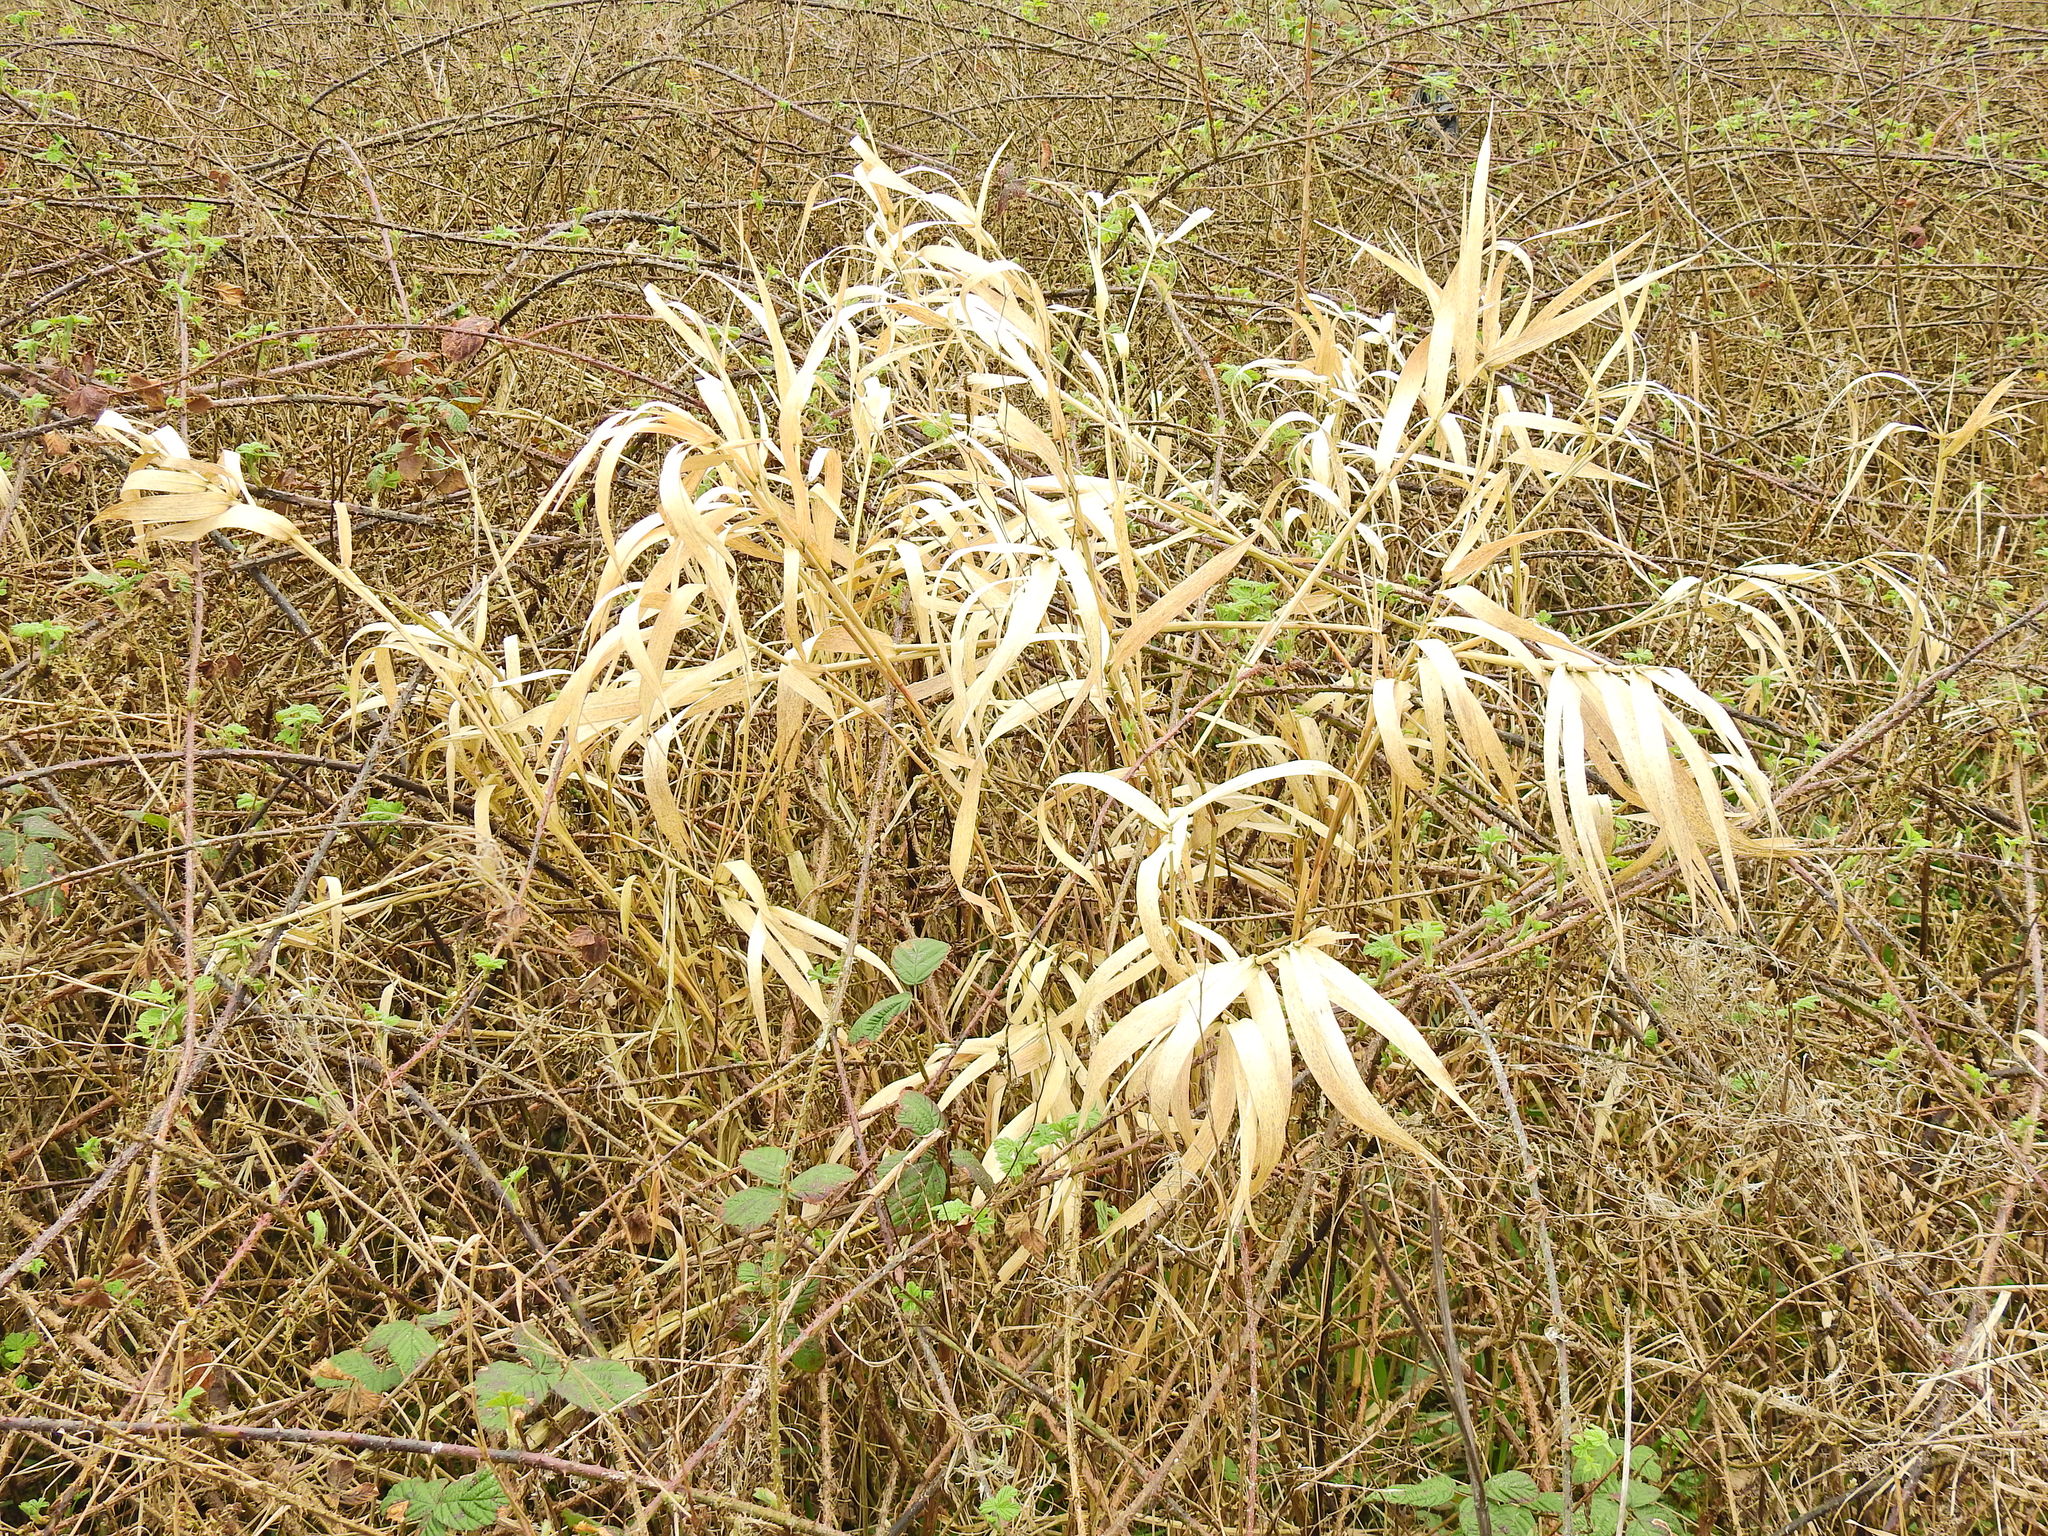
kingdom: Plantae
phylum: Tracheophyta
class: Liliopsida
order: Poales
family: Poaceae
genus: Phalaris
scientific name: Phalaris arundinacea
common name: Reed canary-grass
